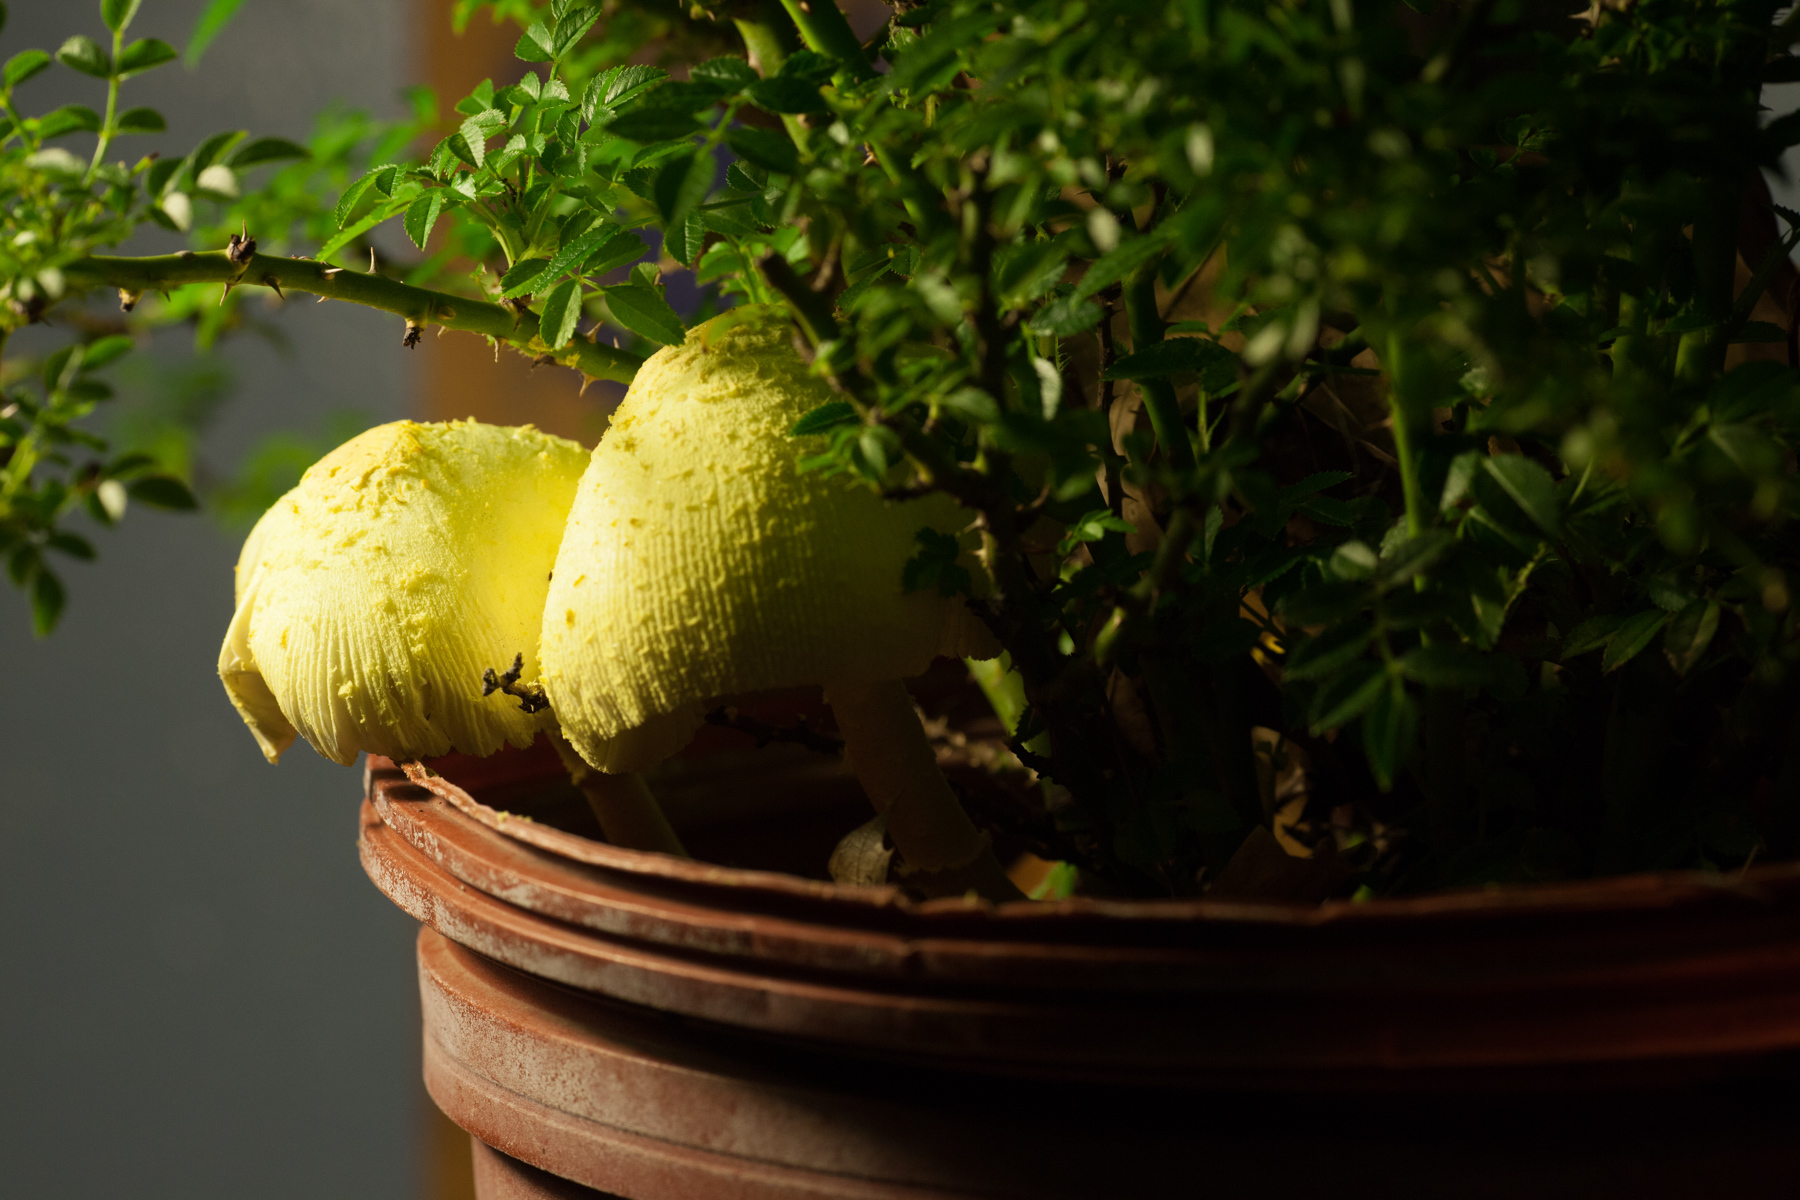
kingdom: Fungi
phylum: Basidiomycota
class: Agaricomycetes
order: Agaricales
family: Agaricaceae
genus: Leucocoprinus
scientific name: Leucocoprinus birnbaumii
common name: Plantpot dapperling
